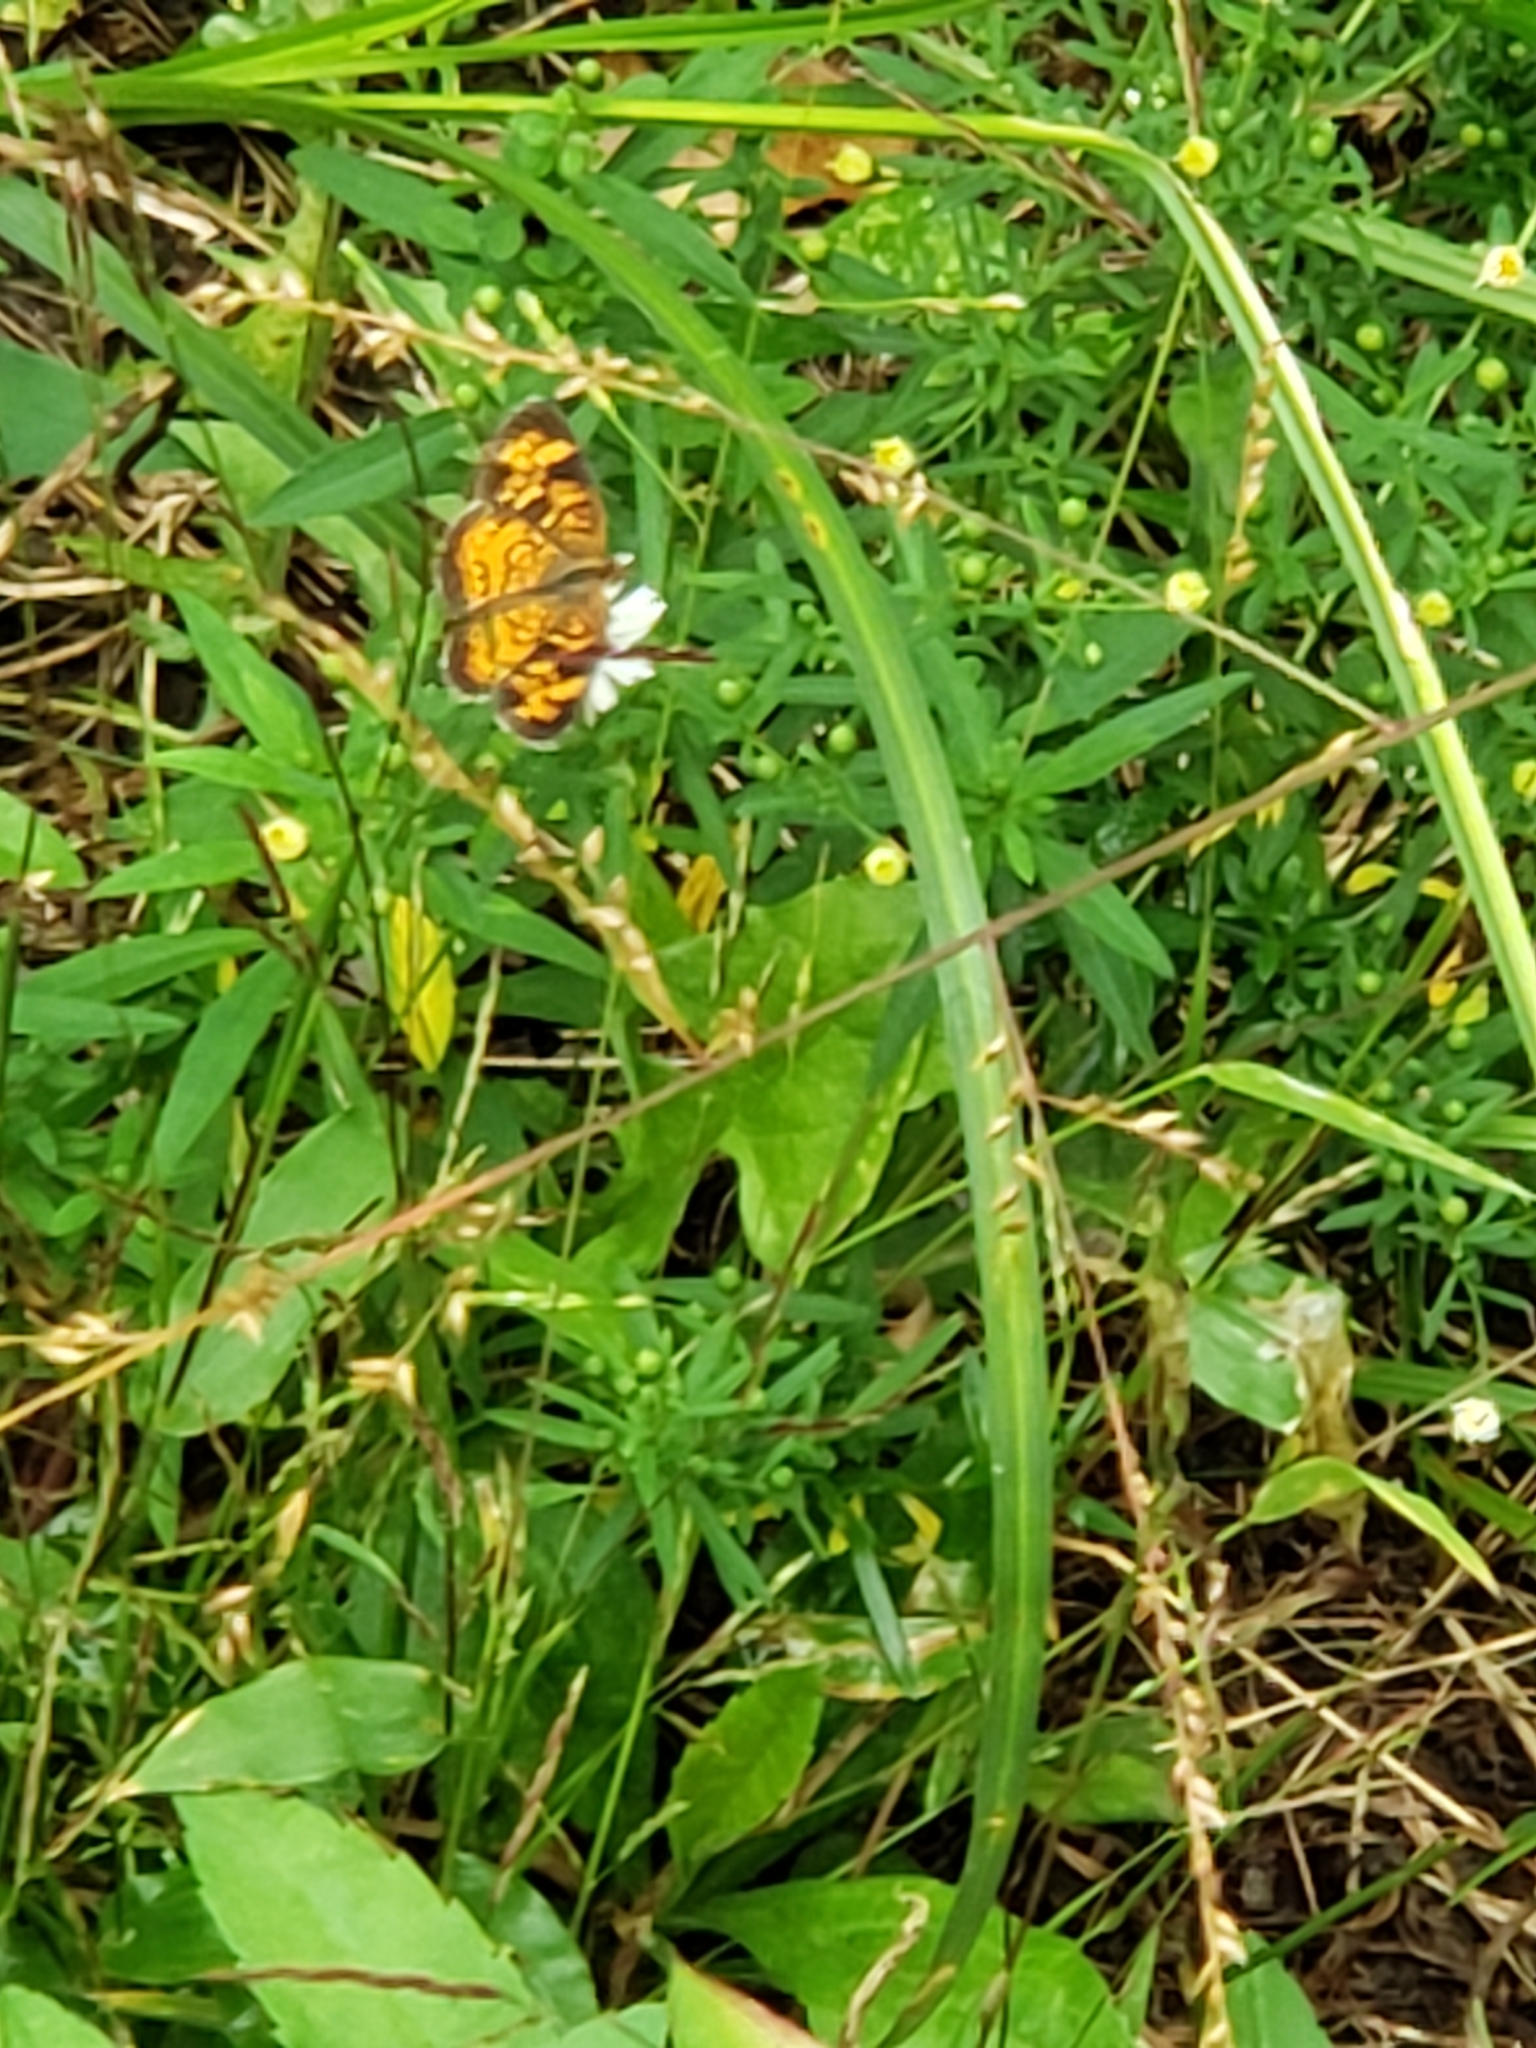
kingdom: Animalia
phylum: Arthropoda
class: Insecta
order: Lepidoptera
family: Nymphalidae
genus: Phyciodes
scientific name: Phyciodes tharos
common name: Pearl crescent
